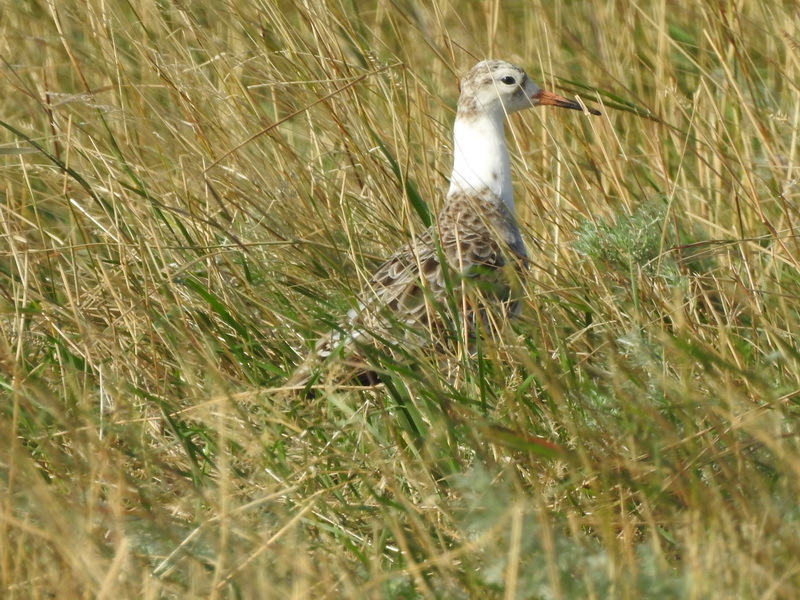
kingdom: Animalia
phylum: Chordata
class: Aves
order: Charadriiformes
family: Scolopacidae
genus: Calidris
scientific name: Calidris pugnax
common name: Ruff
